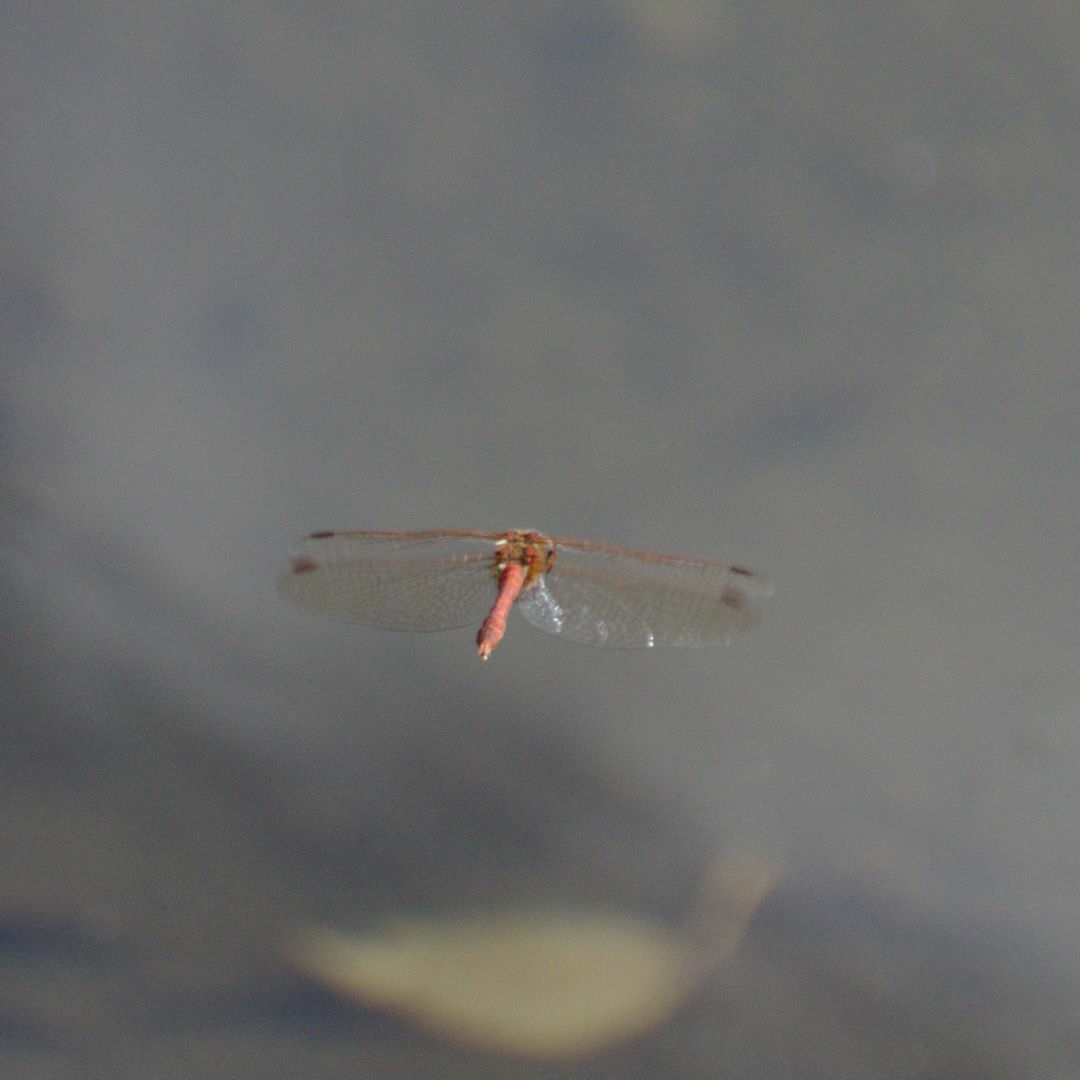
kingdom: Animalia
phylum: Arthropoda
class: Insecta
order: Odonata
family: Libellulidae
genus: Sympetrum
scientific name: Sympetrum vulgatum
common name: Vagrant darter
